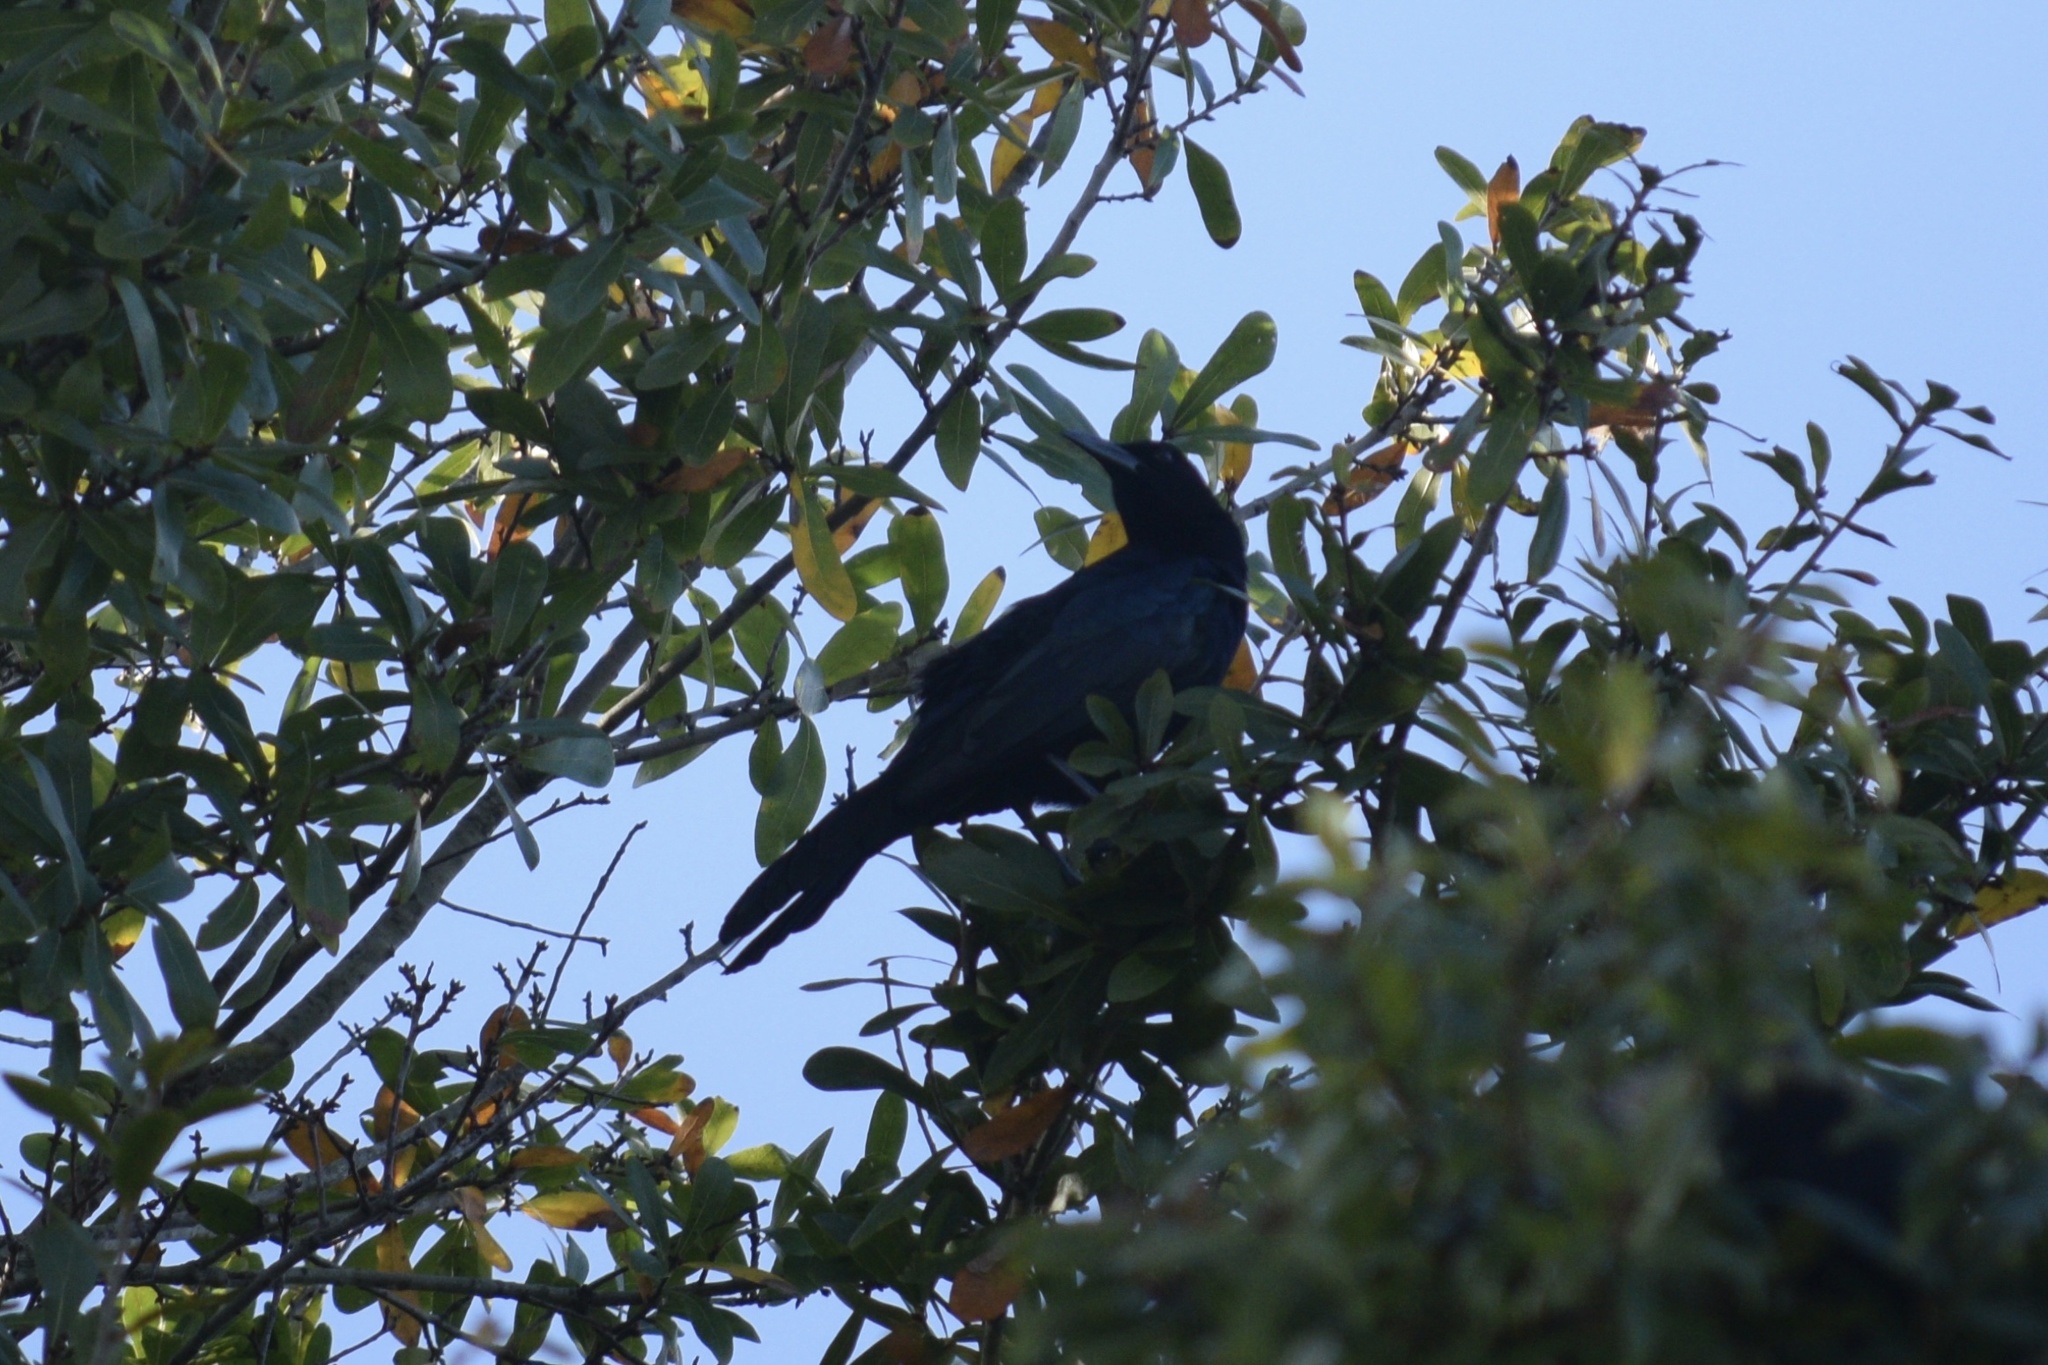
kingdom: Animalia
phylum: Chordata
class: Aves
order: Passeriformes
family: Icteridae
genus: Quiscalus
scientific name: Quiscalus major
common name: Boat-tailed grackle
